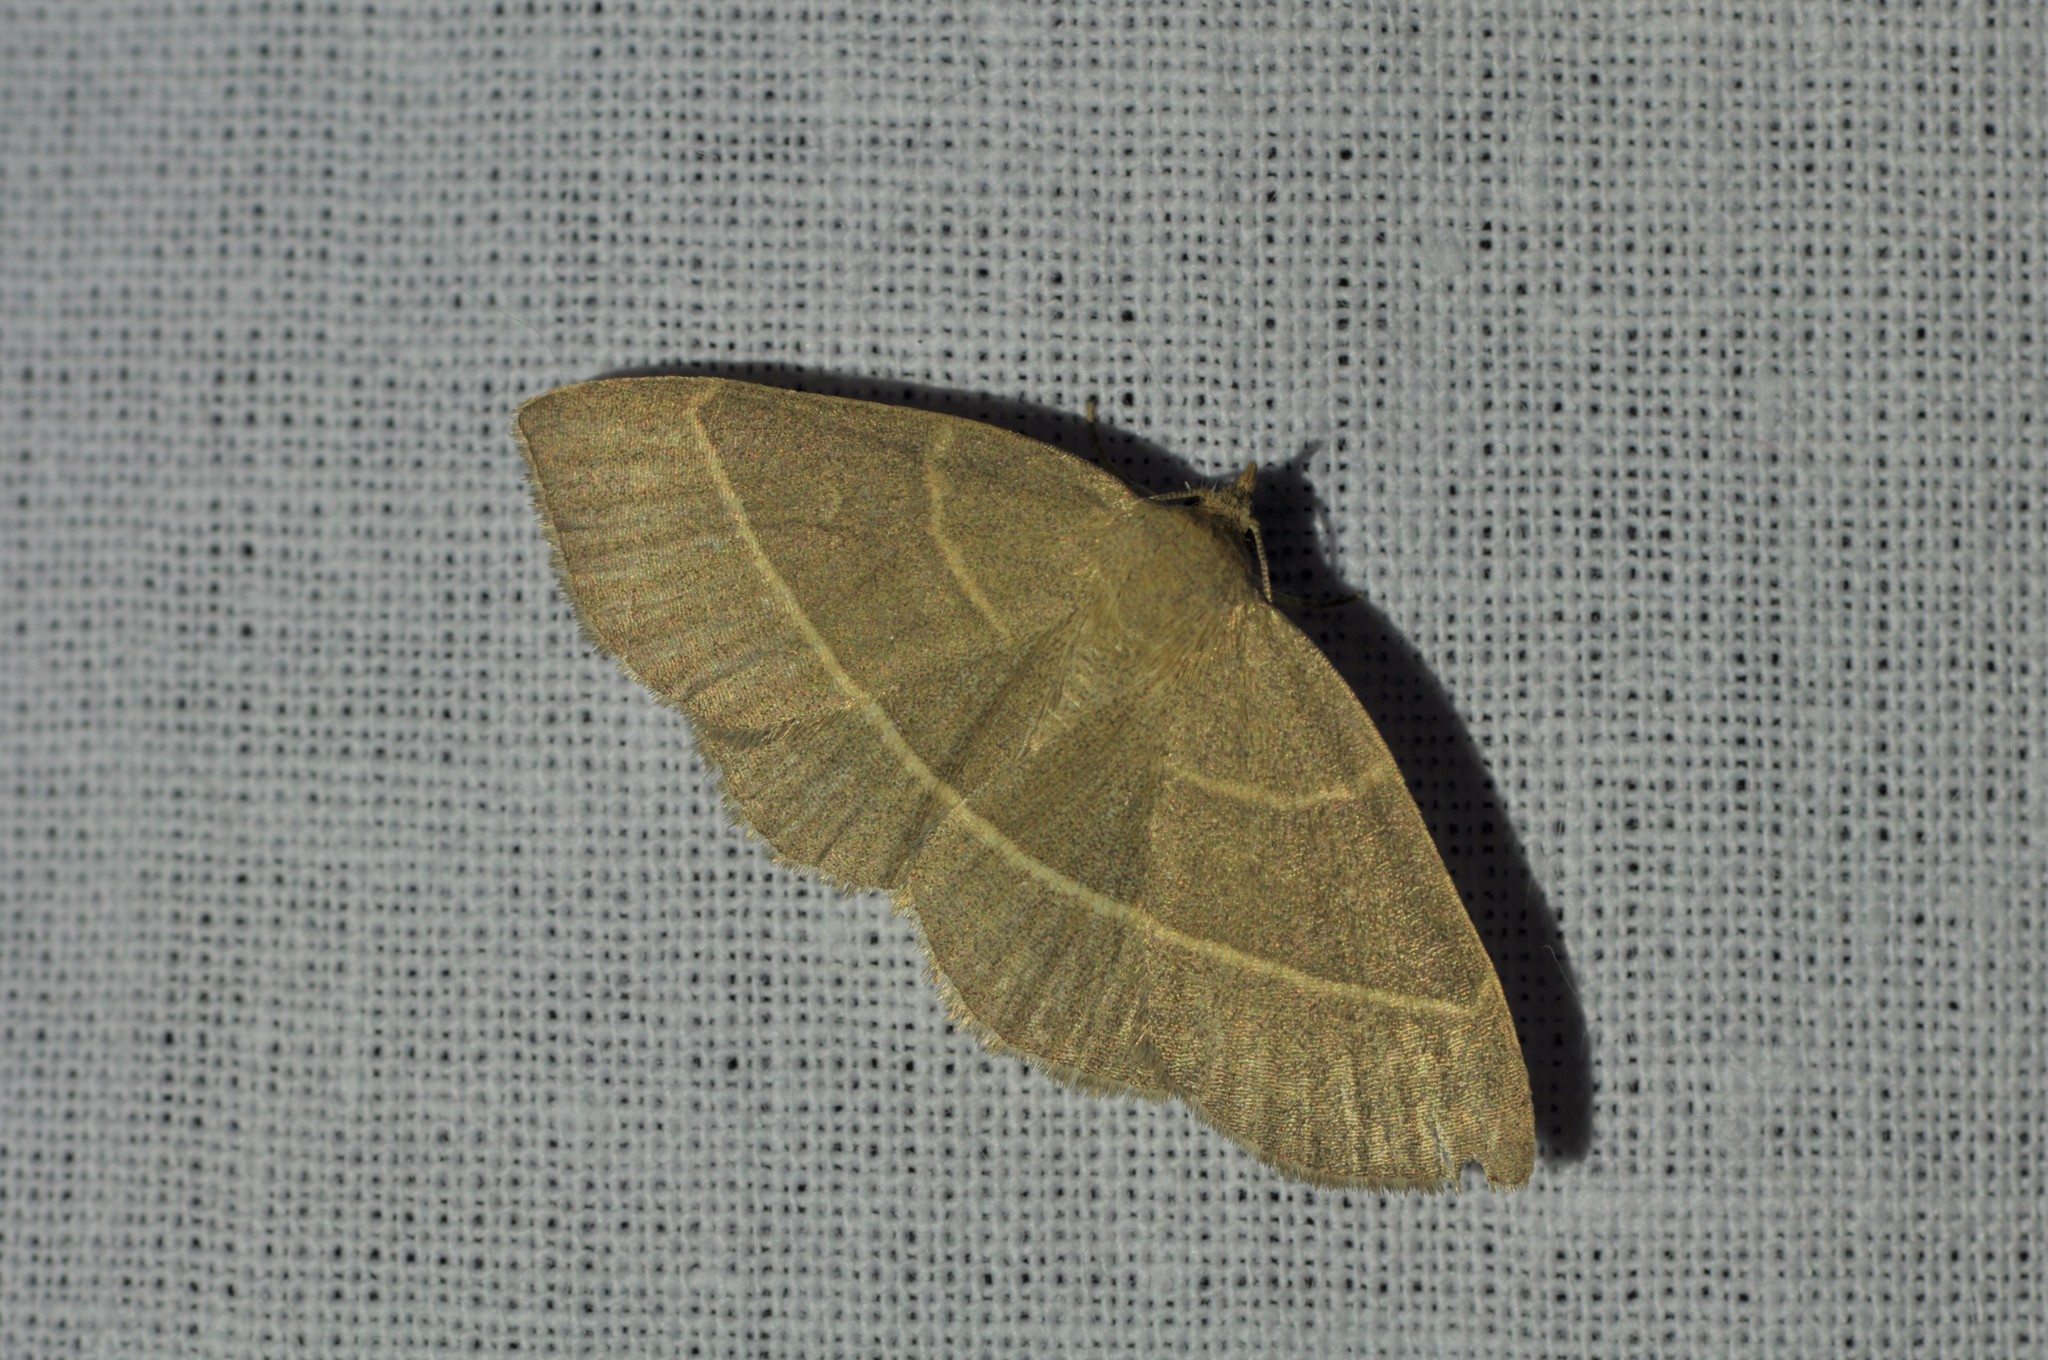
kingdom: Animalia
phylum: Arthropoda
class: Insecta
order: Lepidoptera
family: Erebidae
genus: Trisateles
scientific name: Trisateles emortualis
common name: Olive crescent
